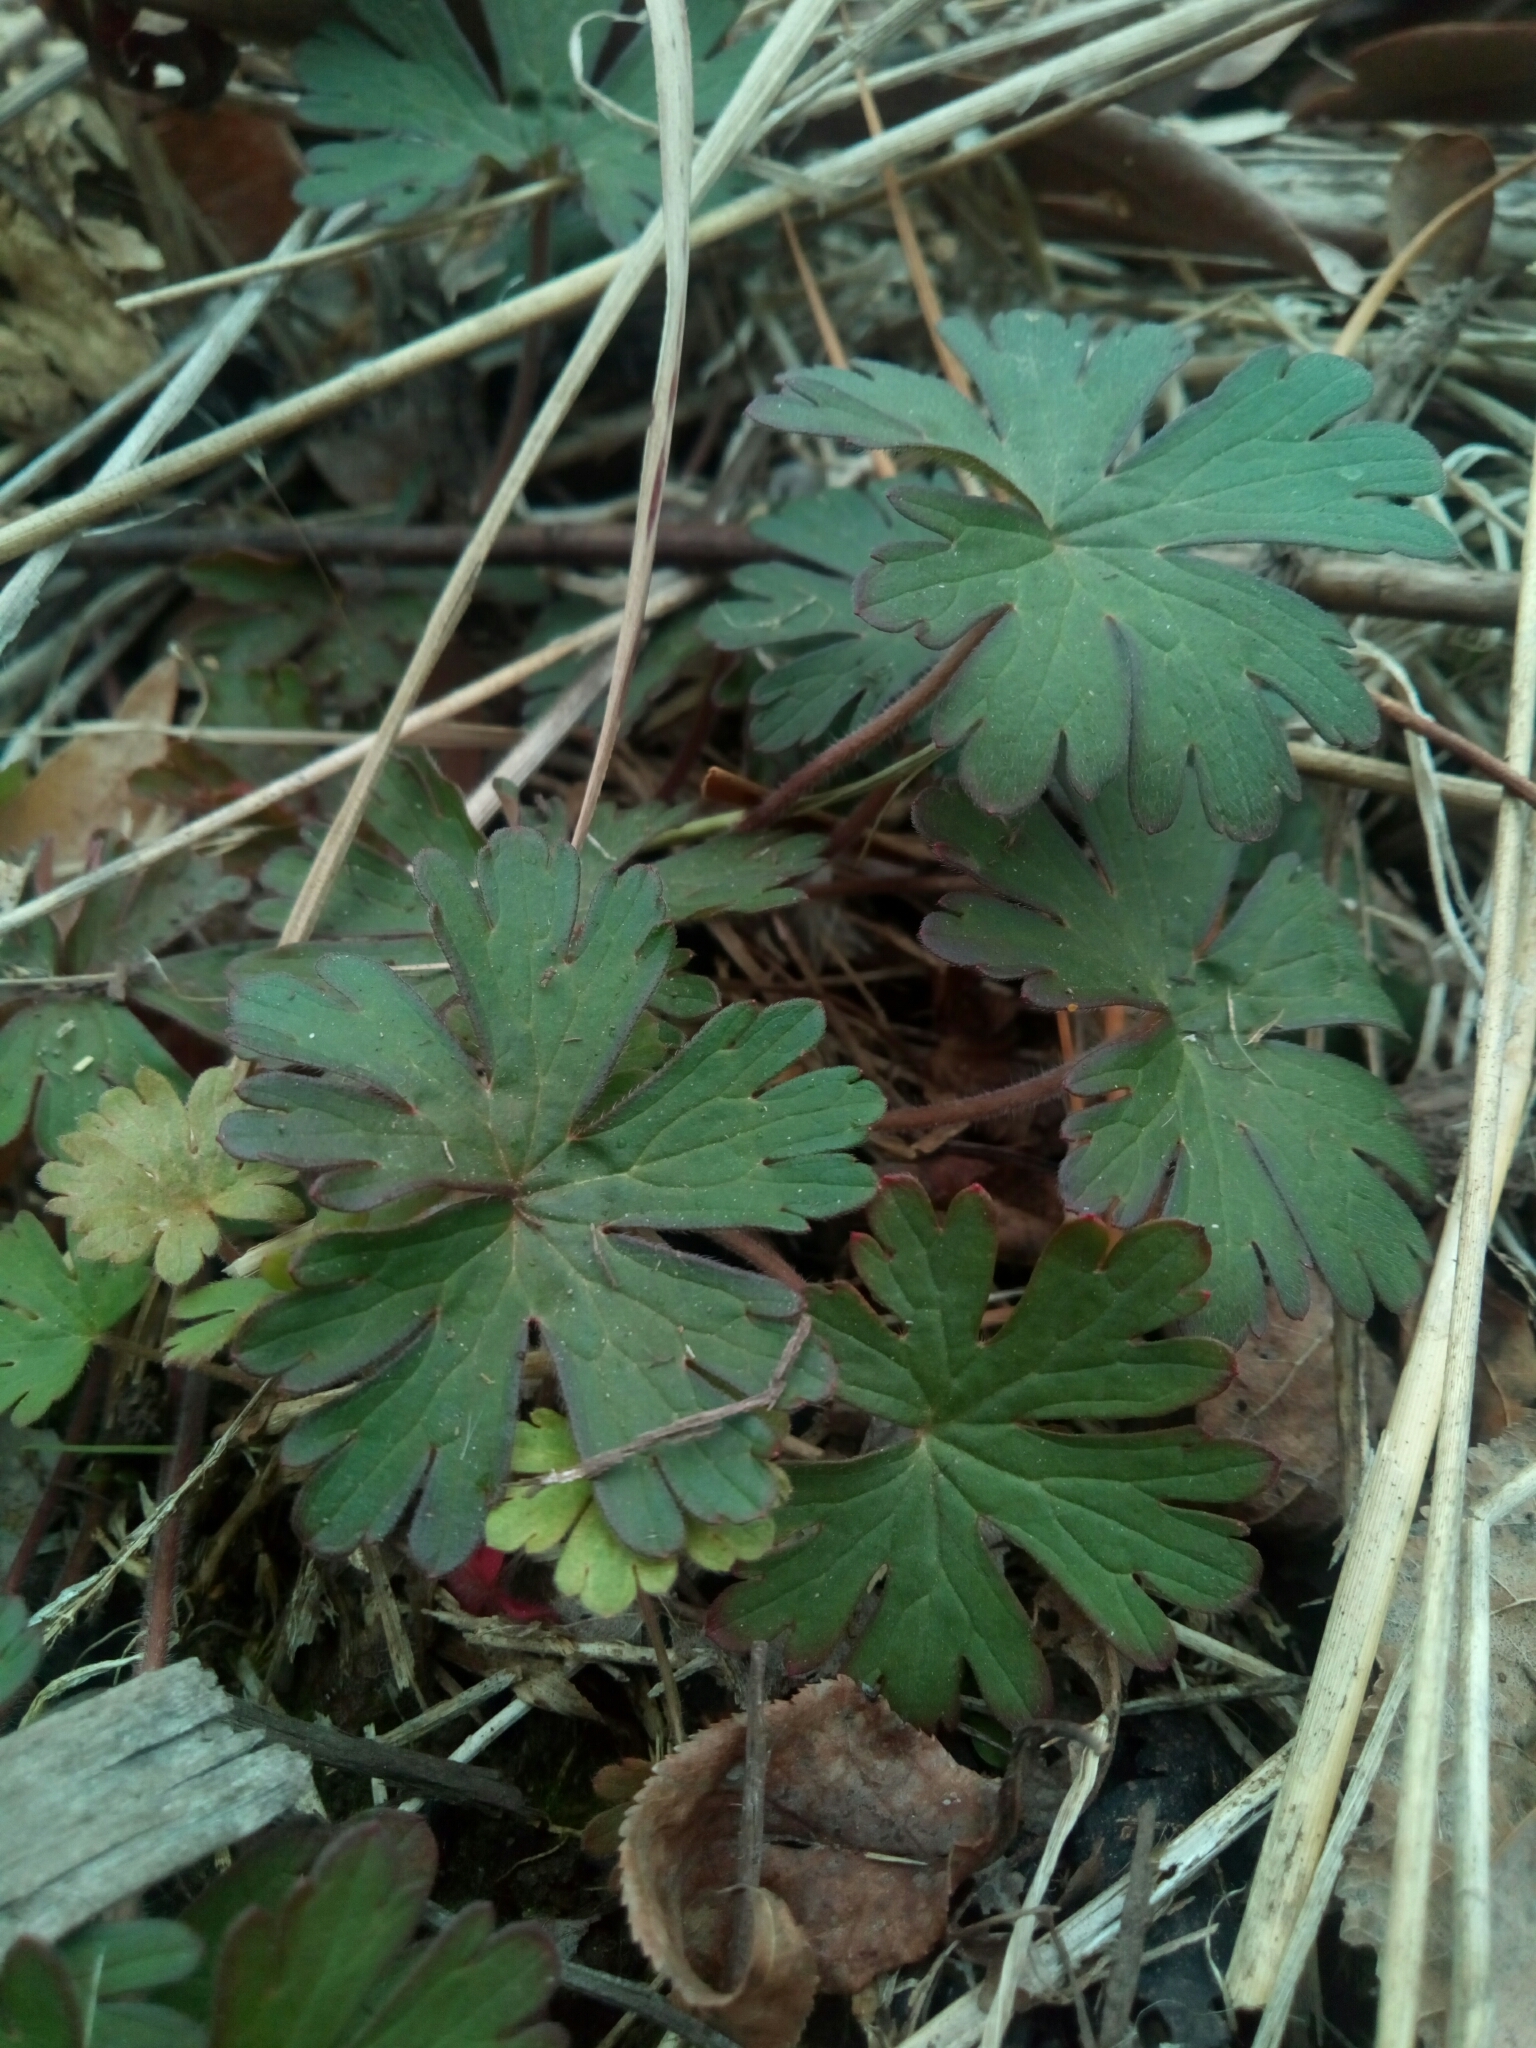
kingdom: Plantae
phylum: Tracheophyta
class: Magnoliopsida
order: Geraniales
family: Geraniaceae
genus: Geranium
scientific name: Geranium carolinianum
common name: Carolina crane's-bill
